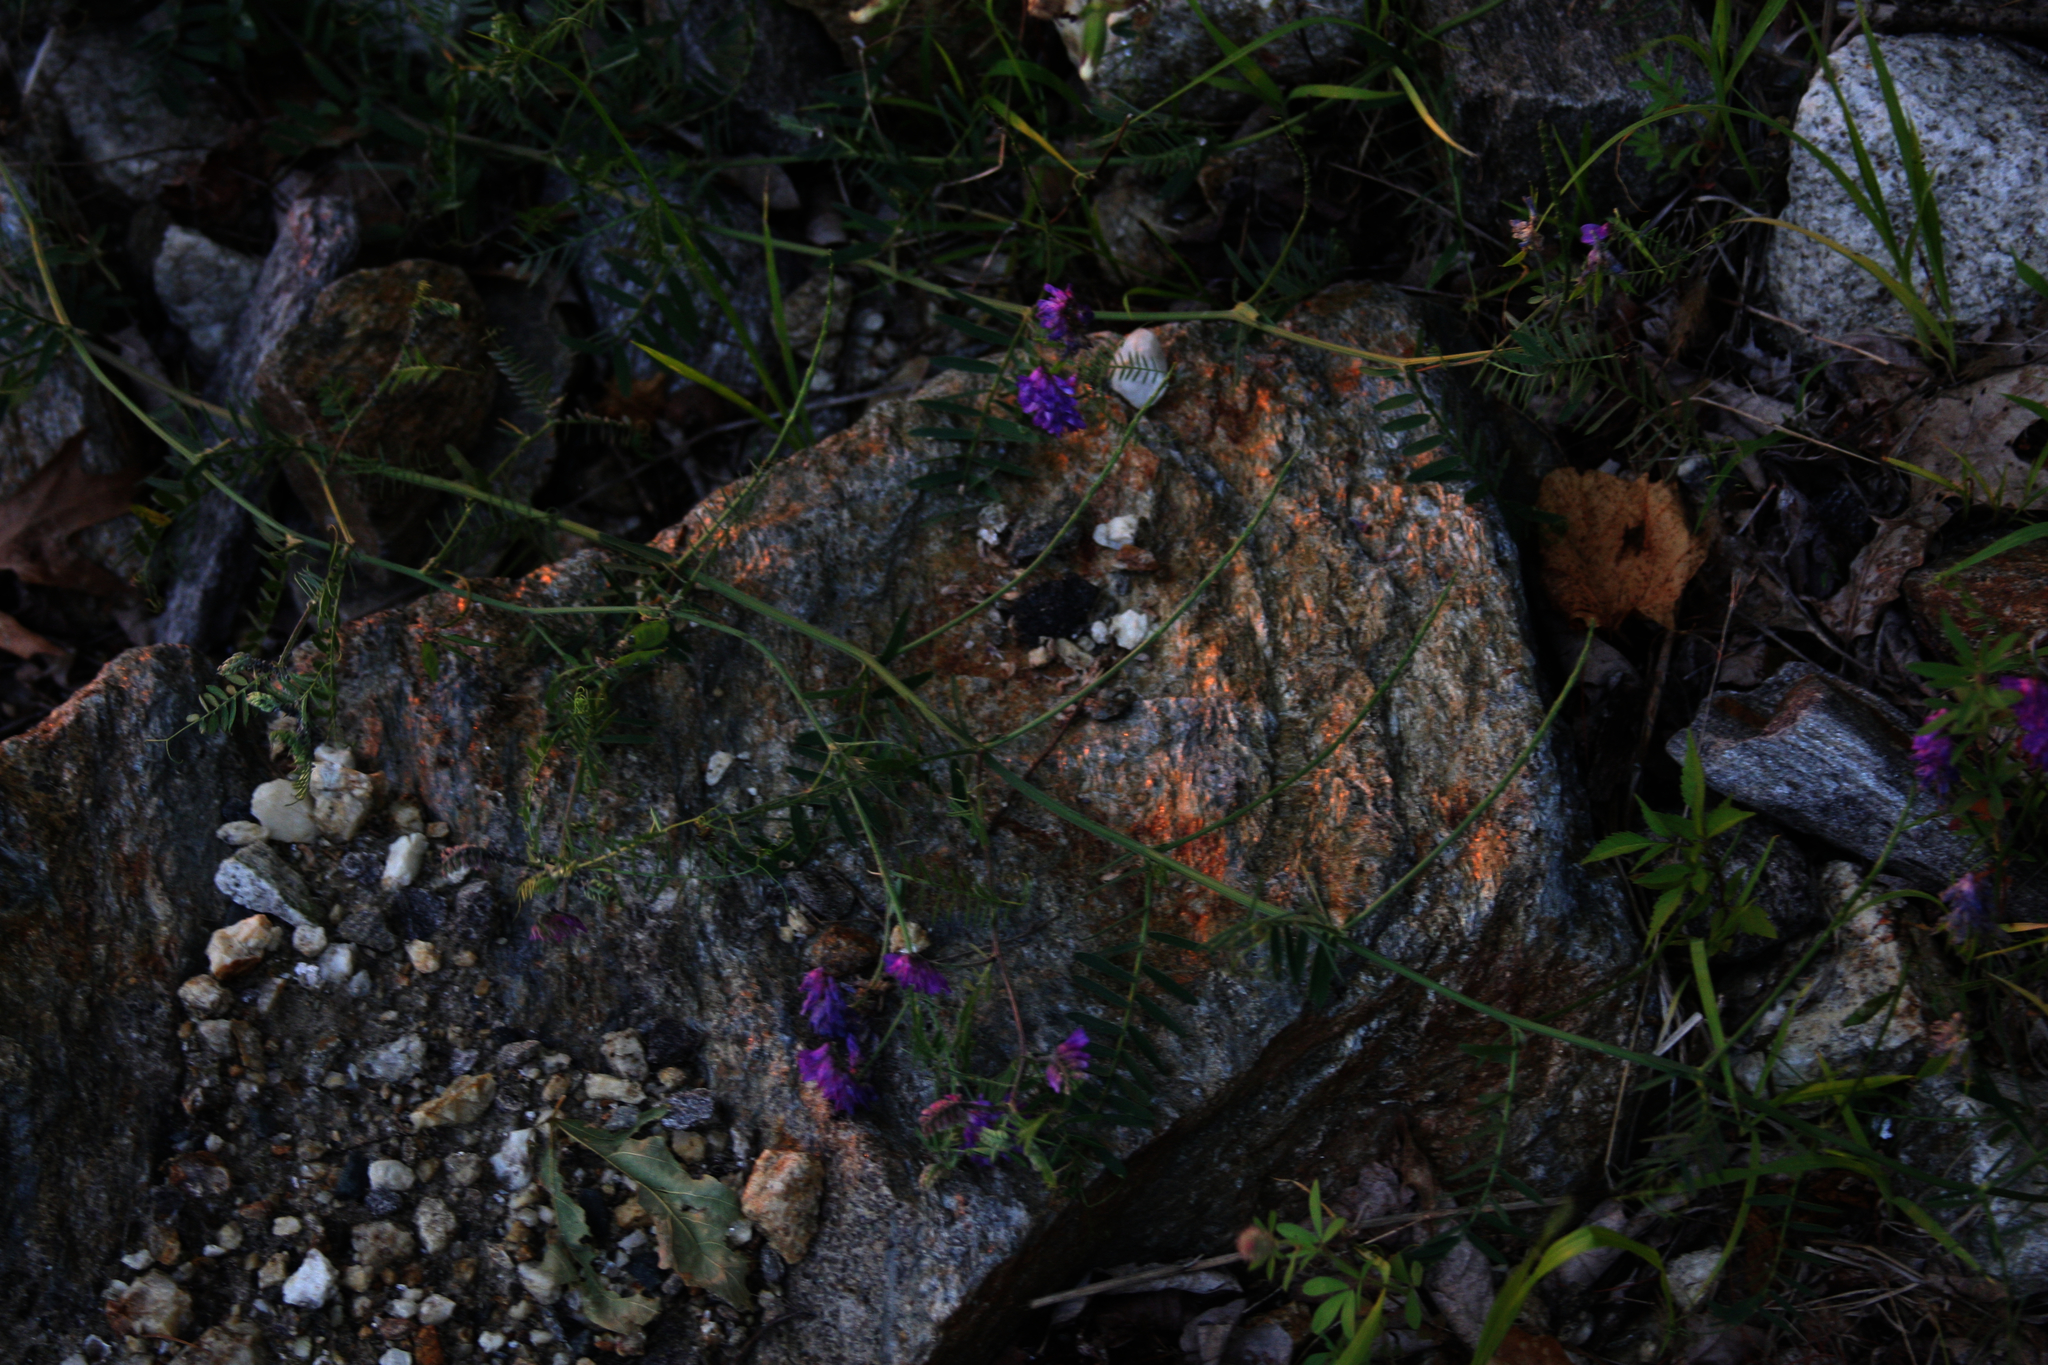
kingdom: Plantae
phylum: Tracheophyta
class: Magnoliopsida
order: Fabales
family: Fabaceae
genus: Vicia
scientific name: Vicia cracca
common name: Bird vetch
